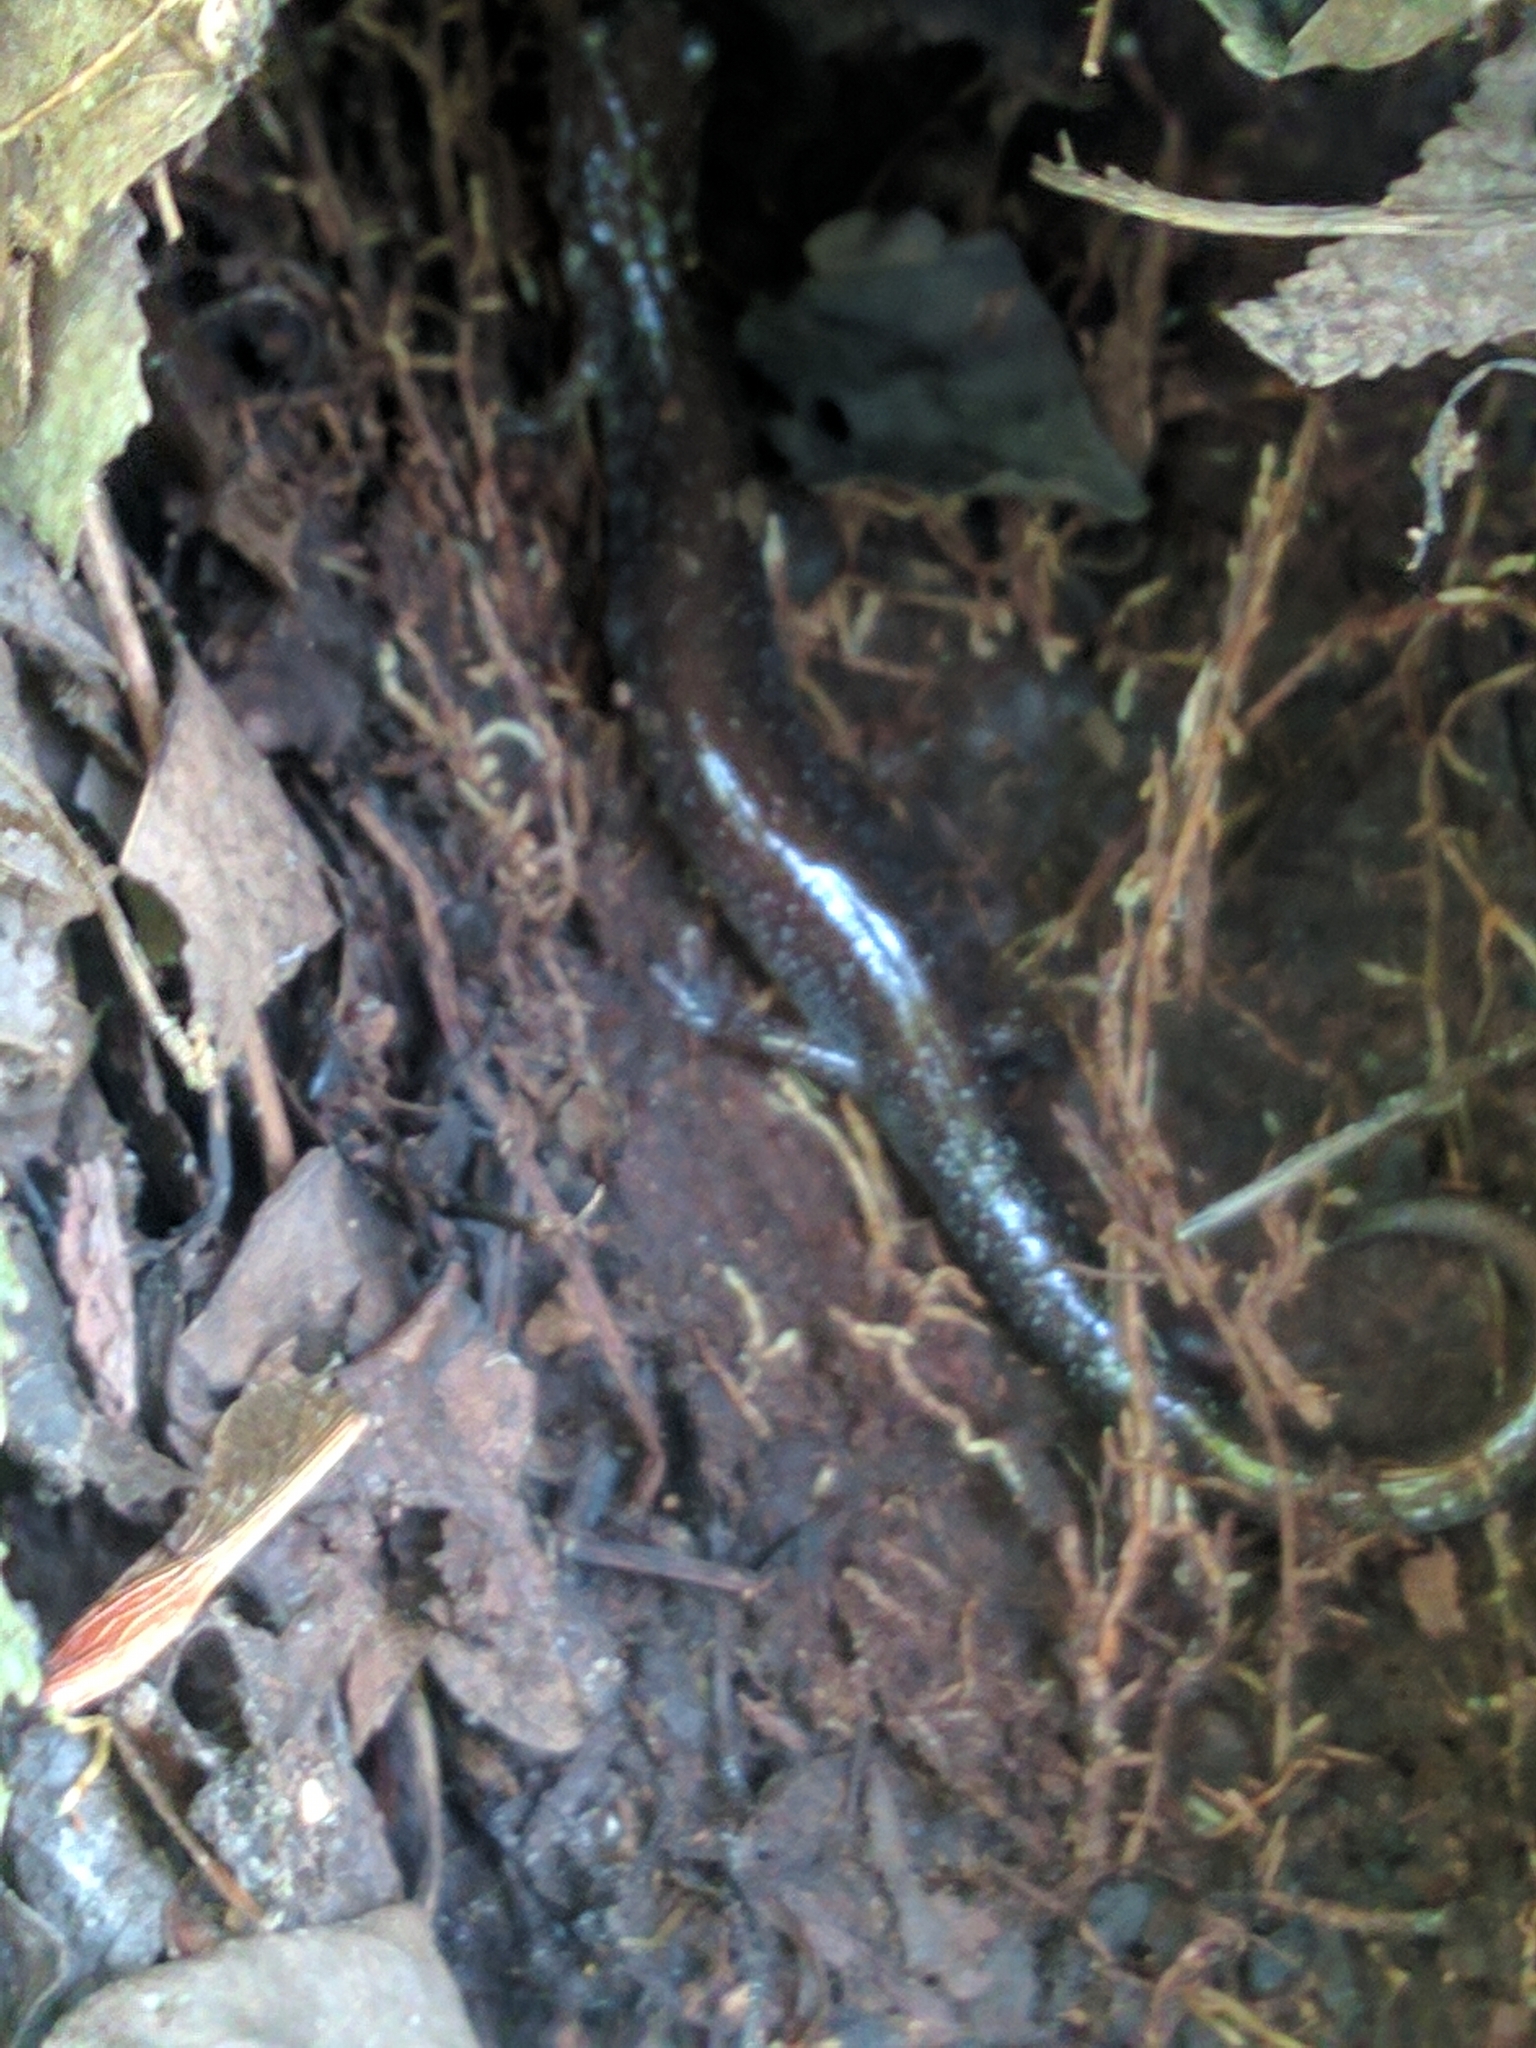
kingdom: Animalia
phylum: Chordata
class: Amphibia
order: Caudata
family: Plethodontidae
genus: Plethodon
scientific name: Plethodon cinereus
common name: Redback salamander
